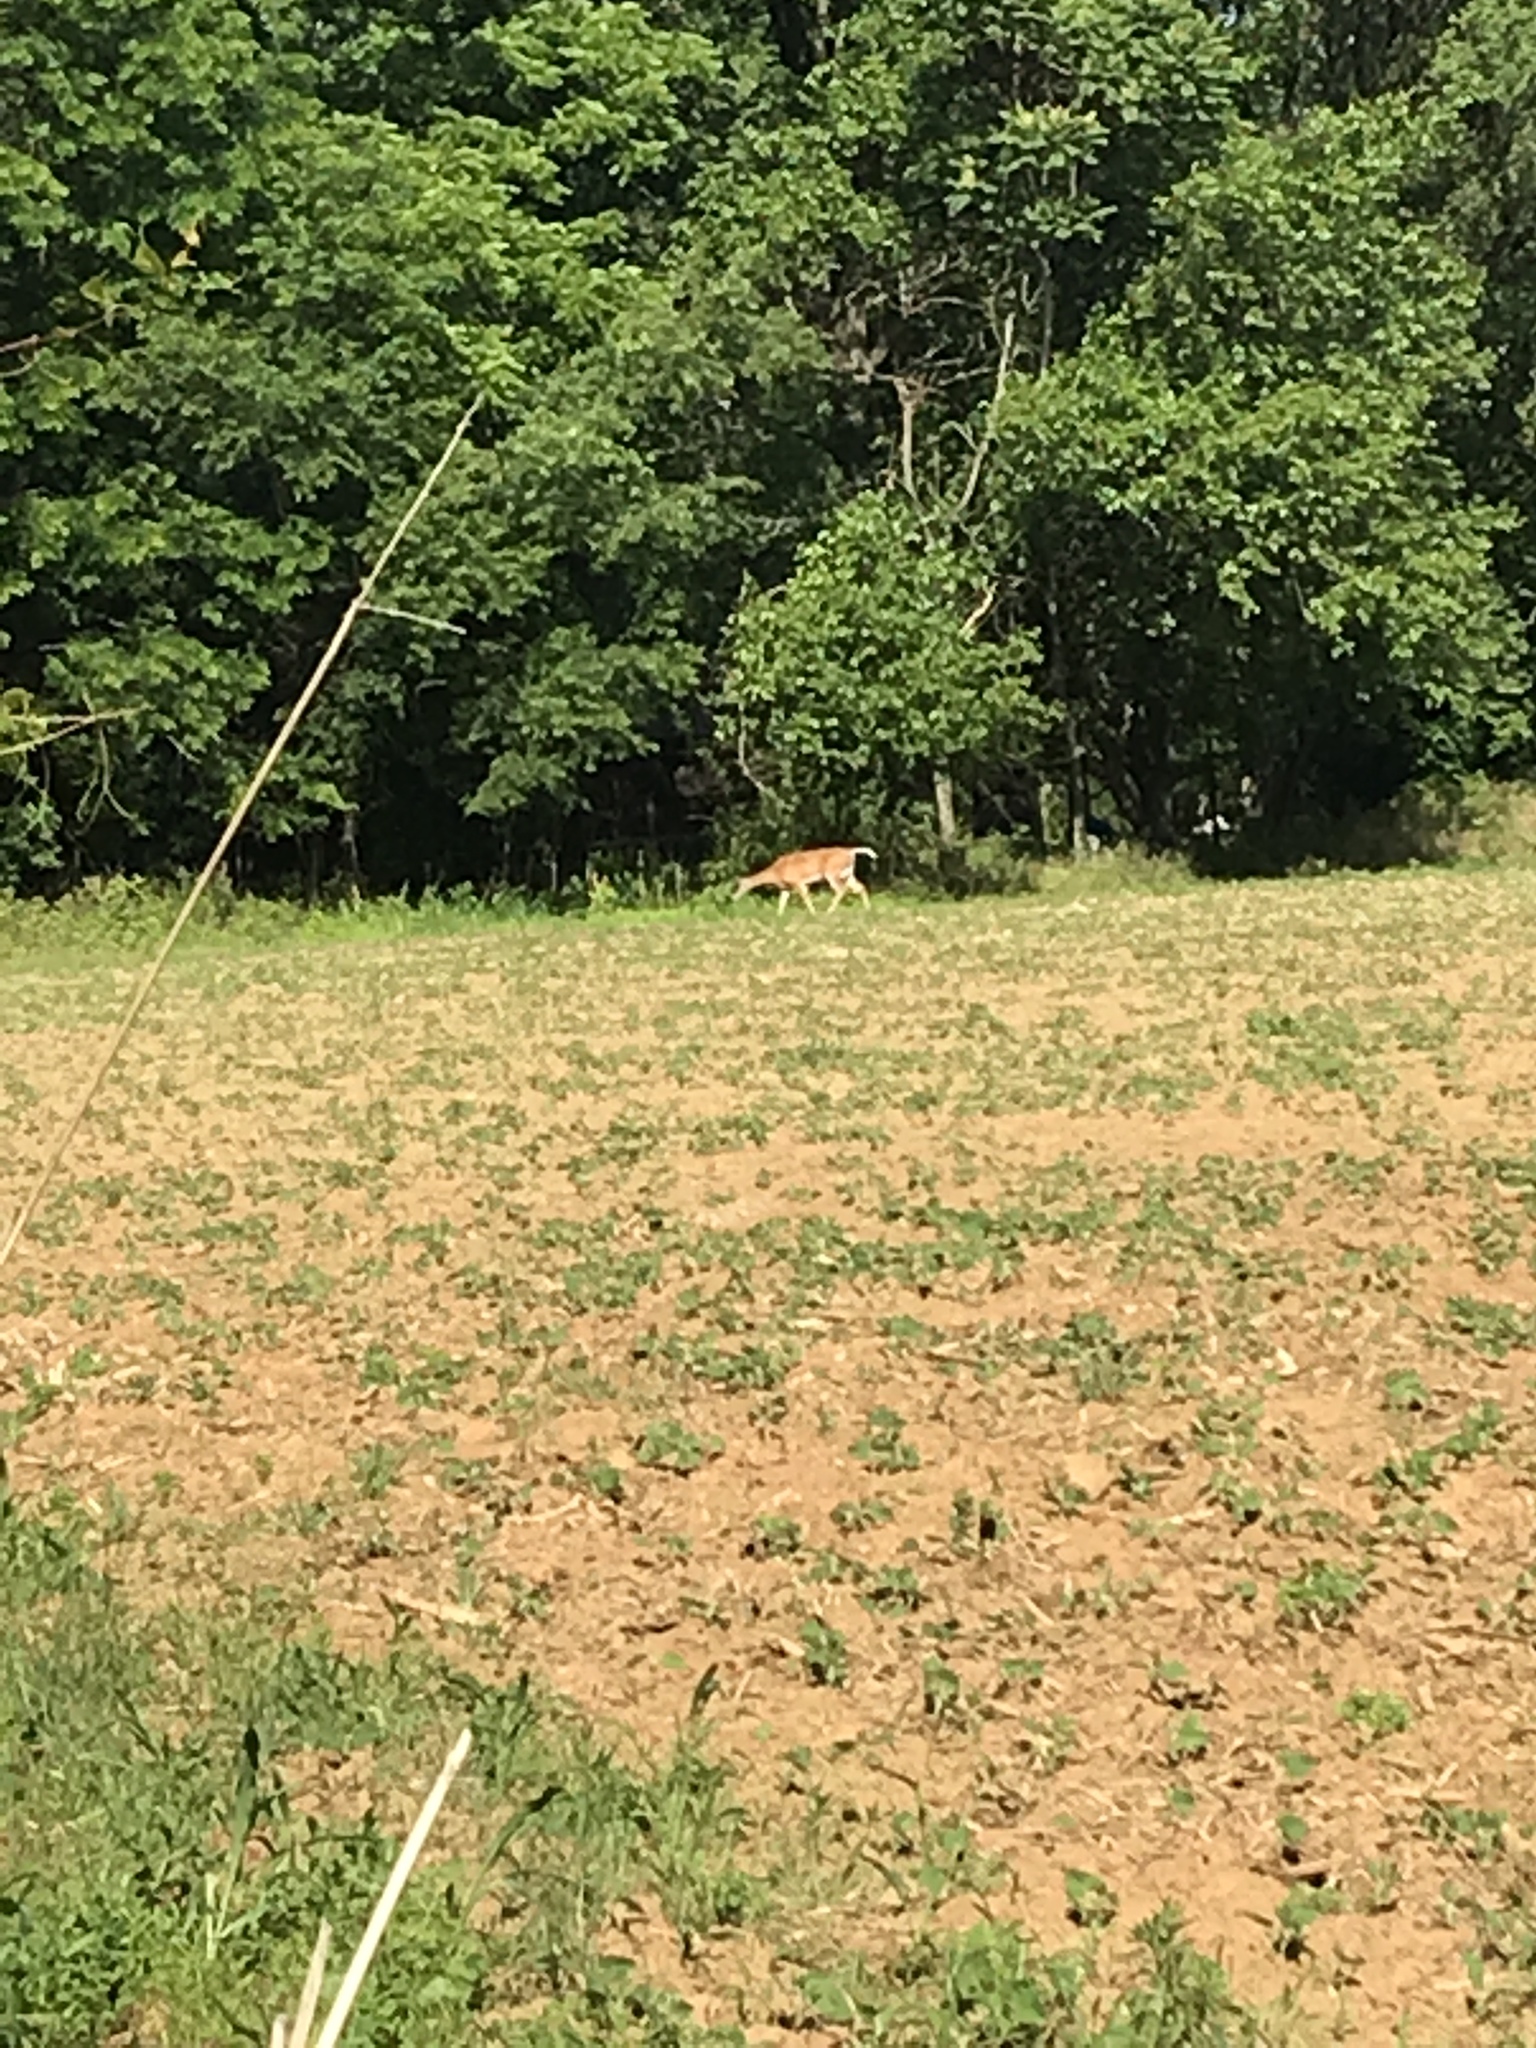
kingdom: Animalia
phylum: Chordata
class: Mammalia
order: Artiodactyla
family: Cervidae
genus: Odocoileus
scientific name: Odocoileus virginianus
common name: White-tailed deer
